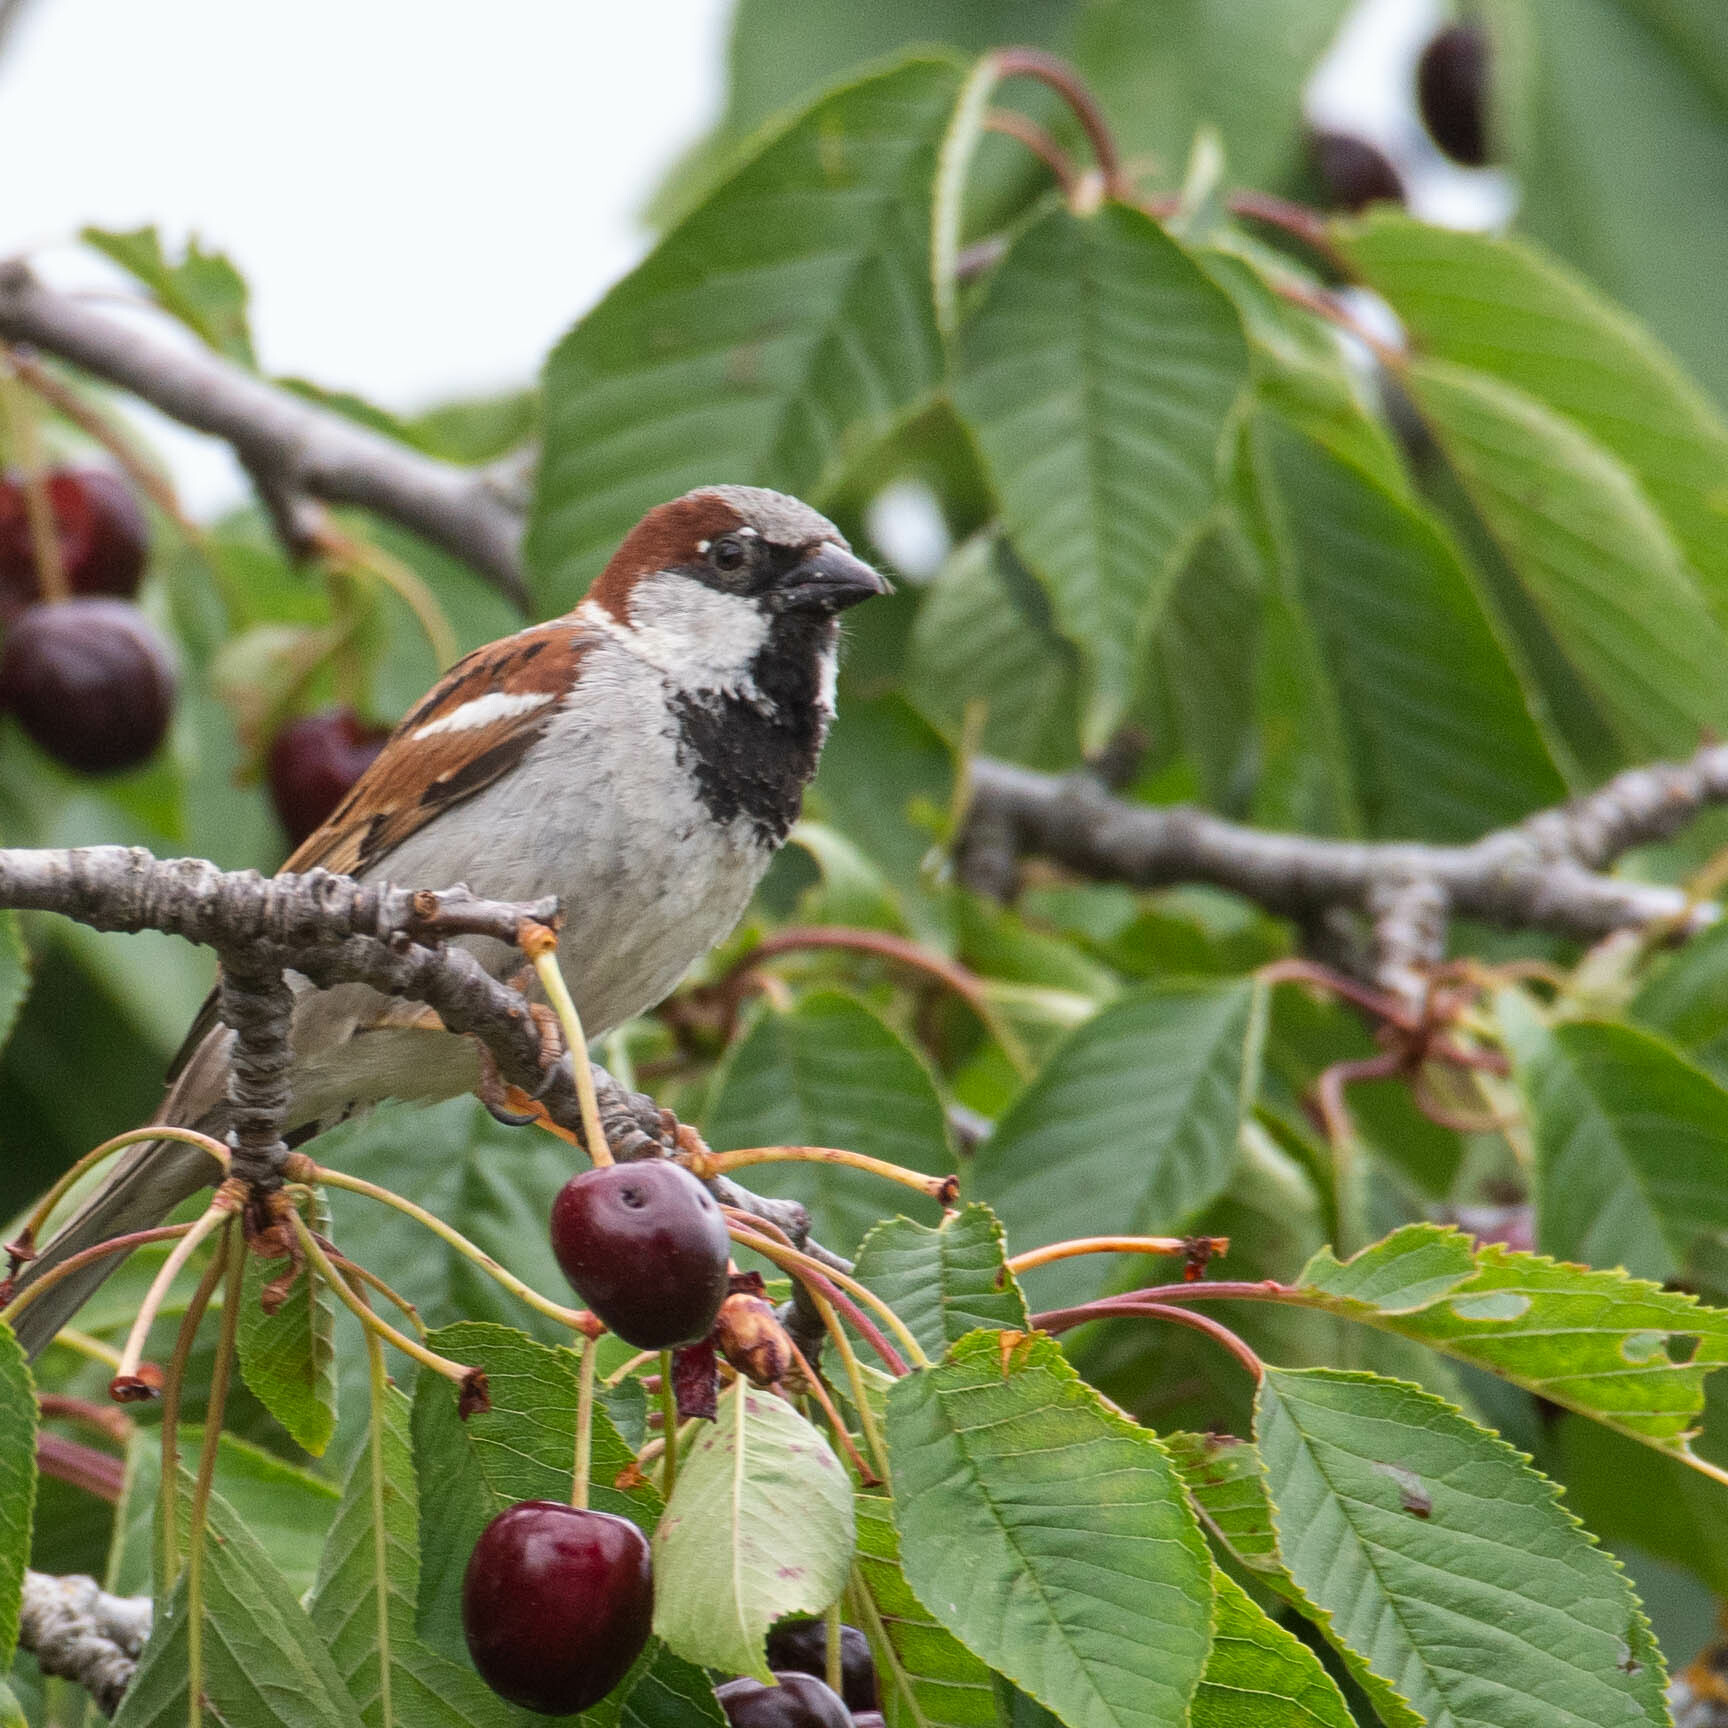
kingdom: Animalia
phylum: Chordata
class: Aves
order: Passeriformes
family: Passeridae
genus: Passer
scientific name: Passer domesticus
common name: House sparrow
